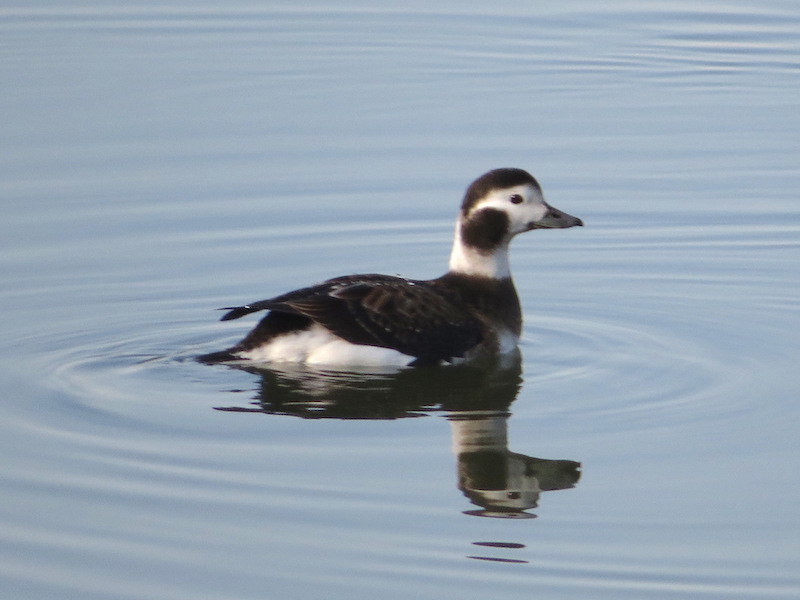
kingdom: Animalia
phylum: Chordata
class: Aves
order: Anseriformes
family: Anatidae
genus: Clangula
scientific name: Clangula hyemalis
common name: Long-tailed duck
